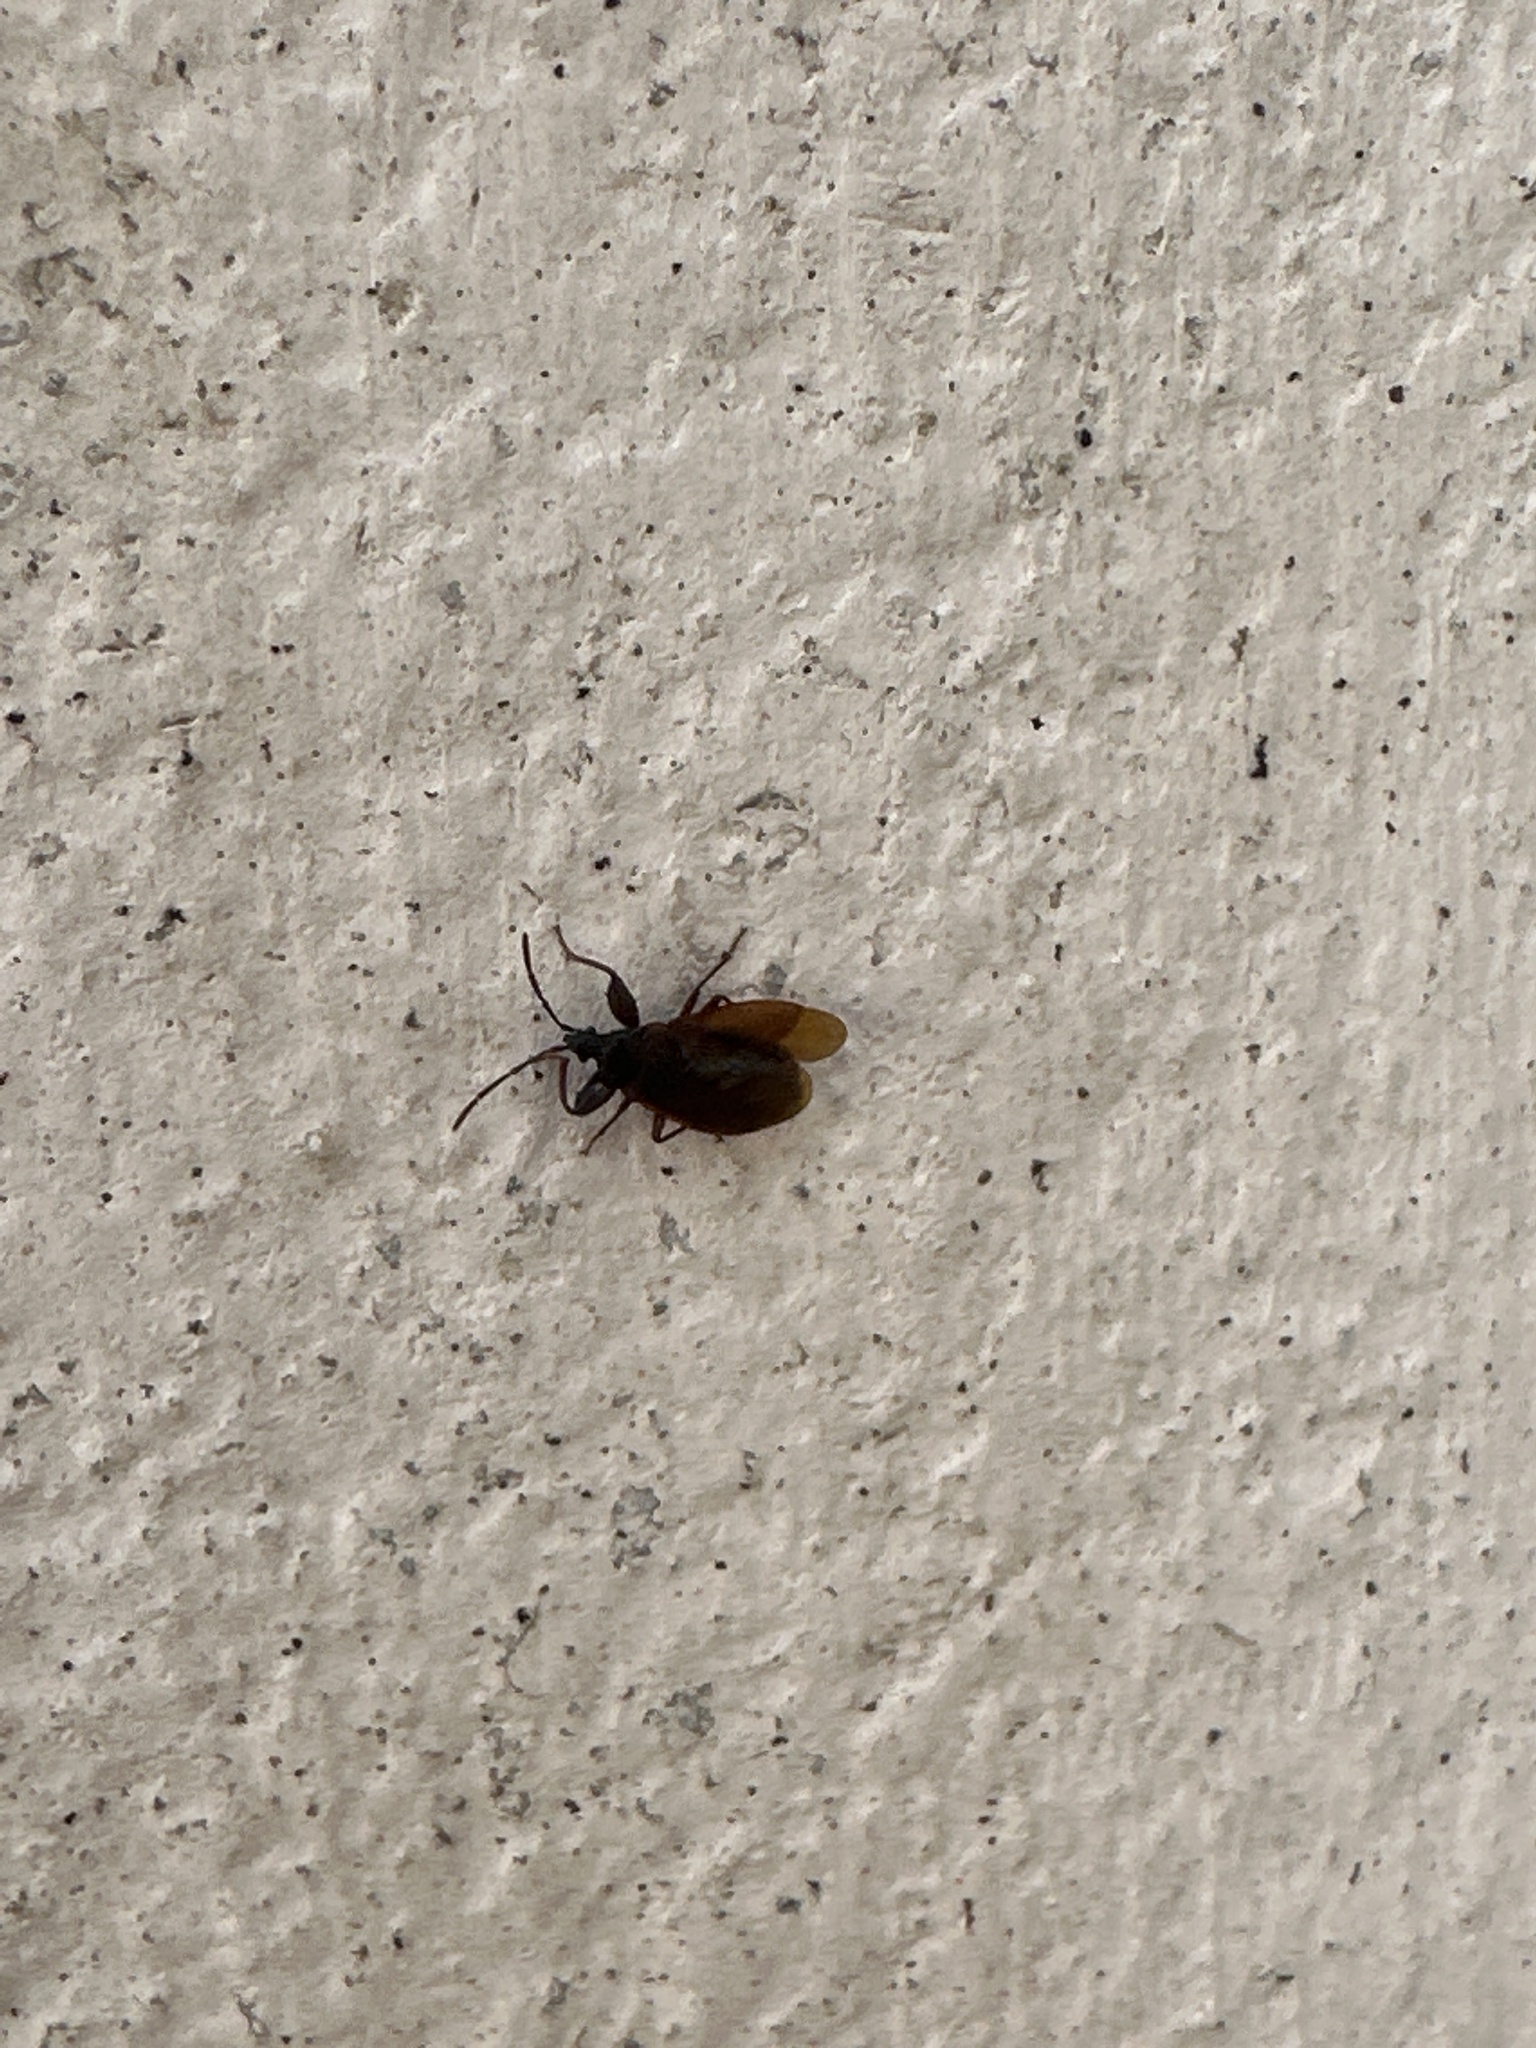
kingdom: Animalia
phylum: Arthropoda
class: Insecta
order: Hemiptera
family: Rhyparochromidae
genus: Gastrodes
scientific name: Gastrodes grossipes
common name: Pine cone bug
